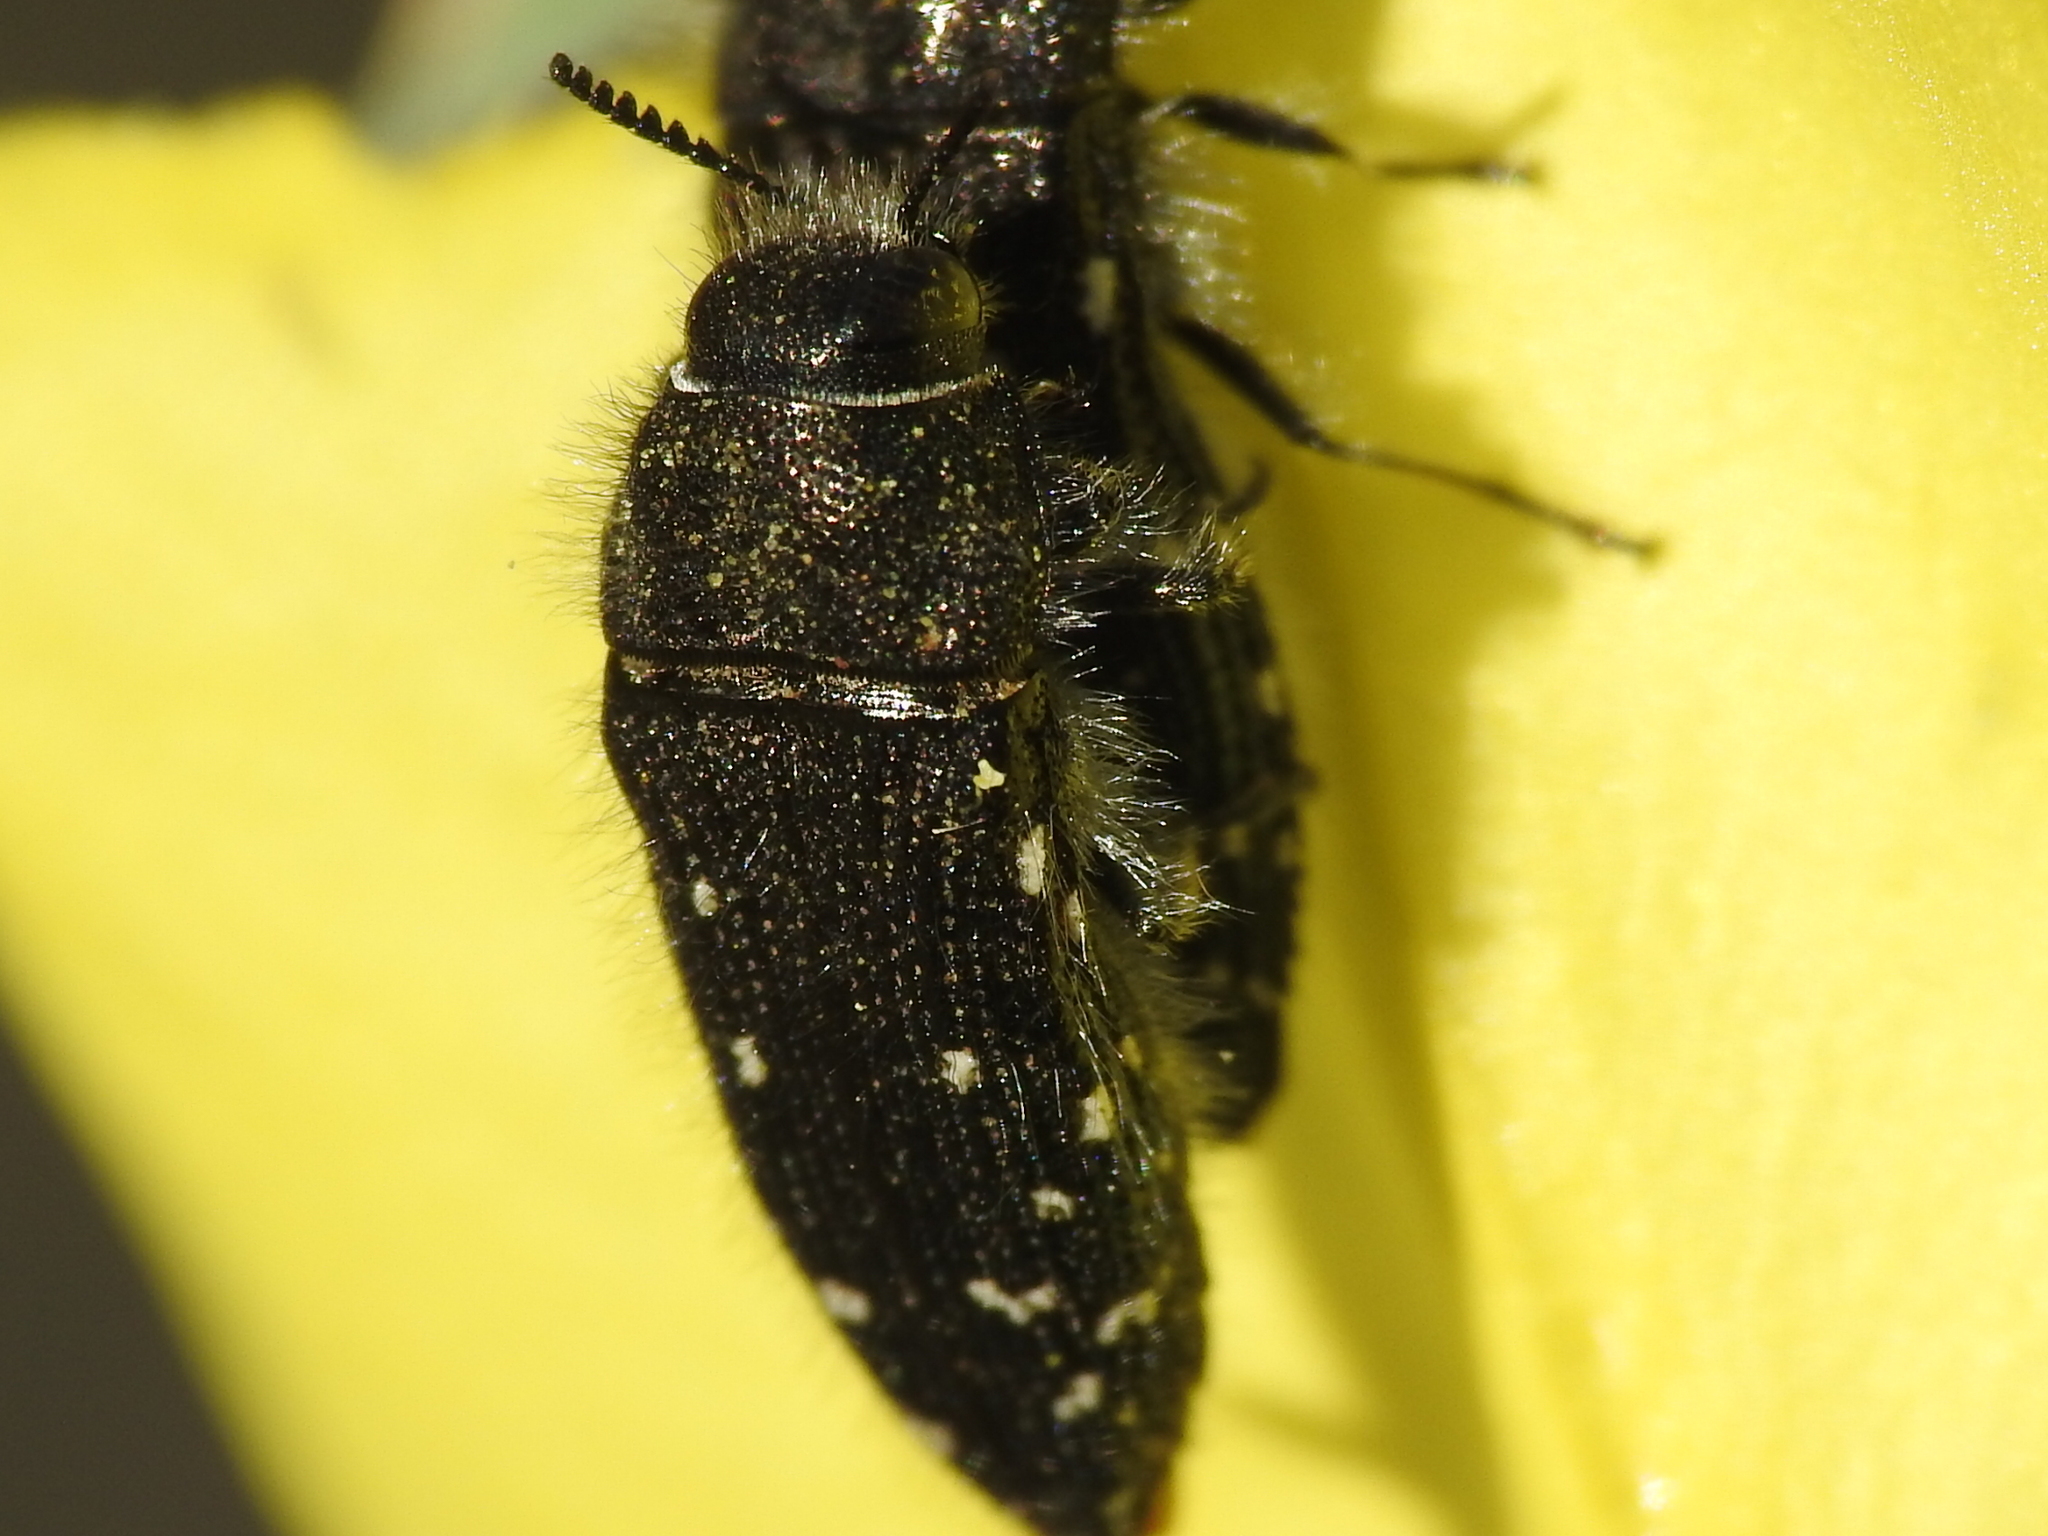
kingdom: Animalia
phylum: Arthropoda
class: Insecta
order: Coleoptera
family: Buprestidae
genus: Acmaeodera
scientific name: Acmaeodera ornatoides
